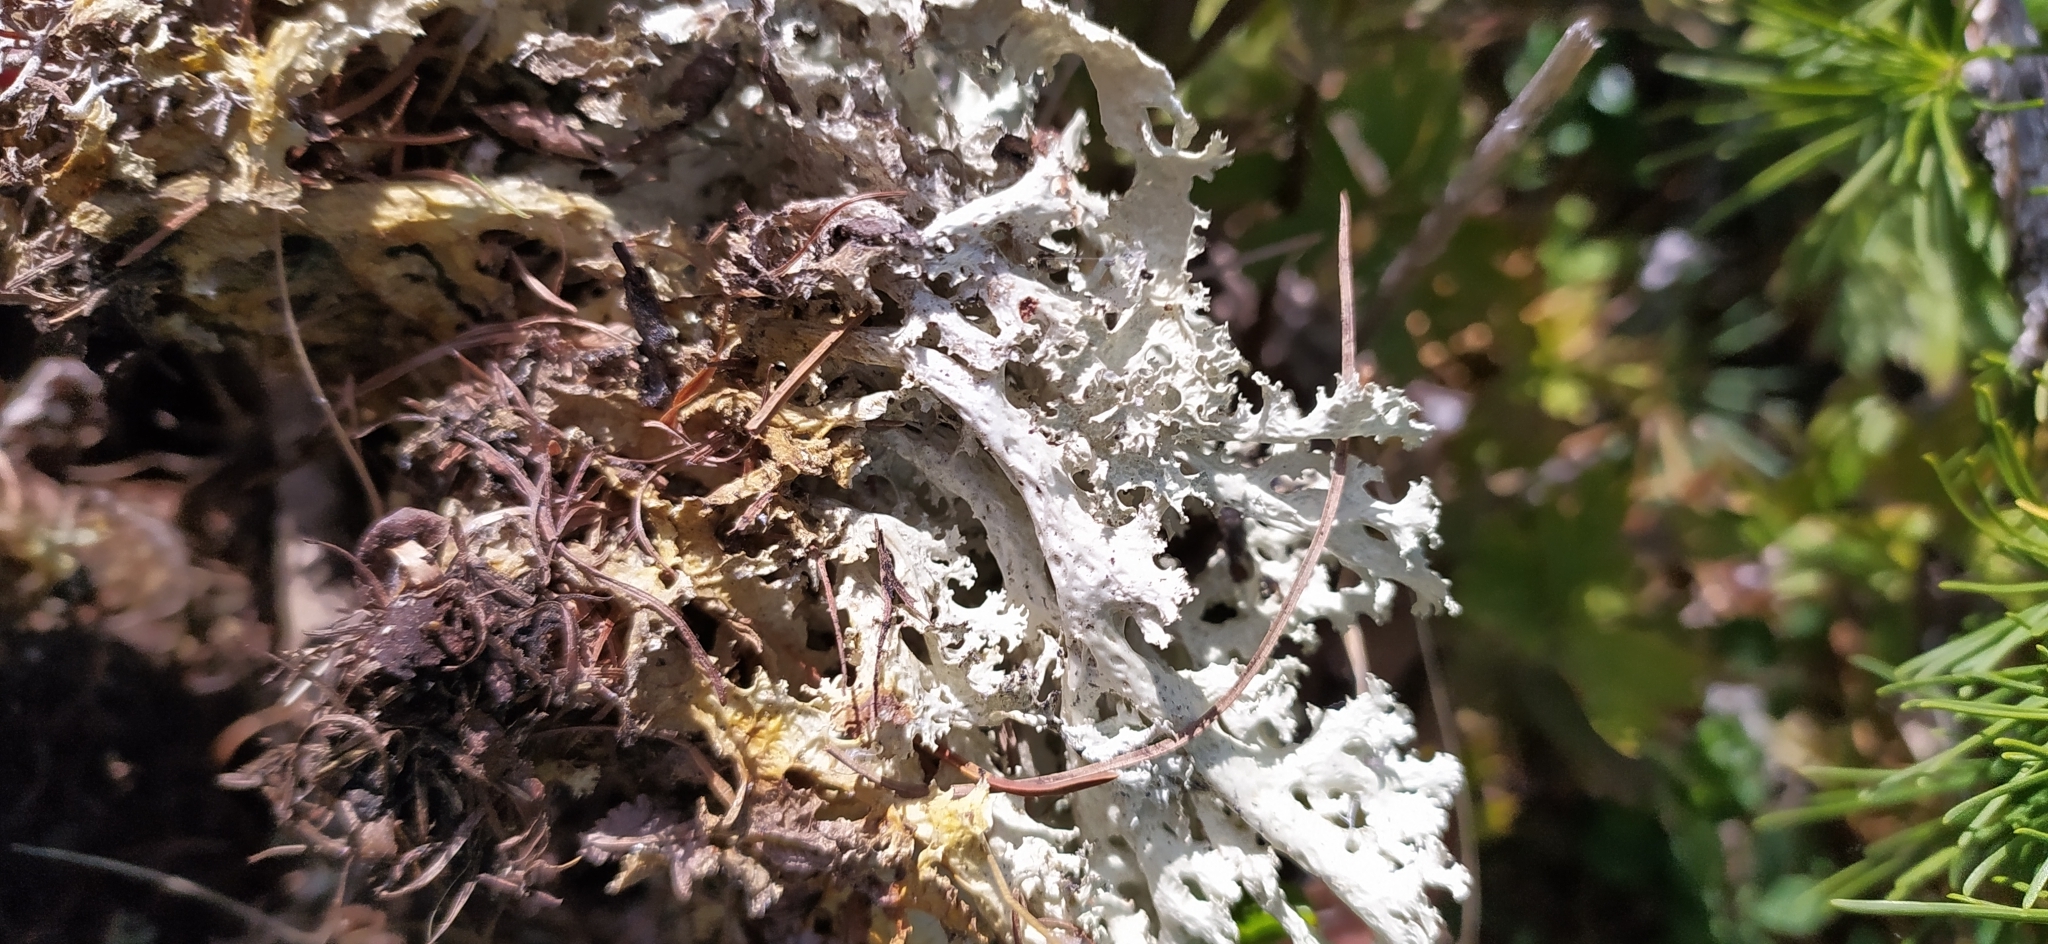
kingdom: Fungi
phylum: Ascomycota
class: Lecanoromycetes
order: Lecanorales
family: Parmeliaceae
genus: Nephromopsis
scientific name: Nephromopsis nivalis
